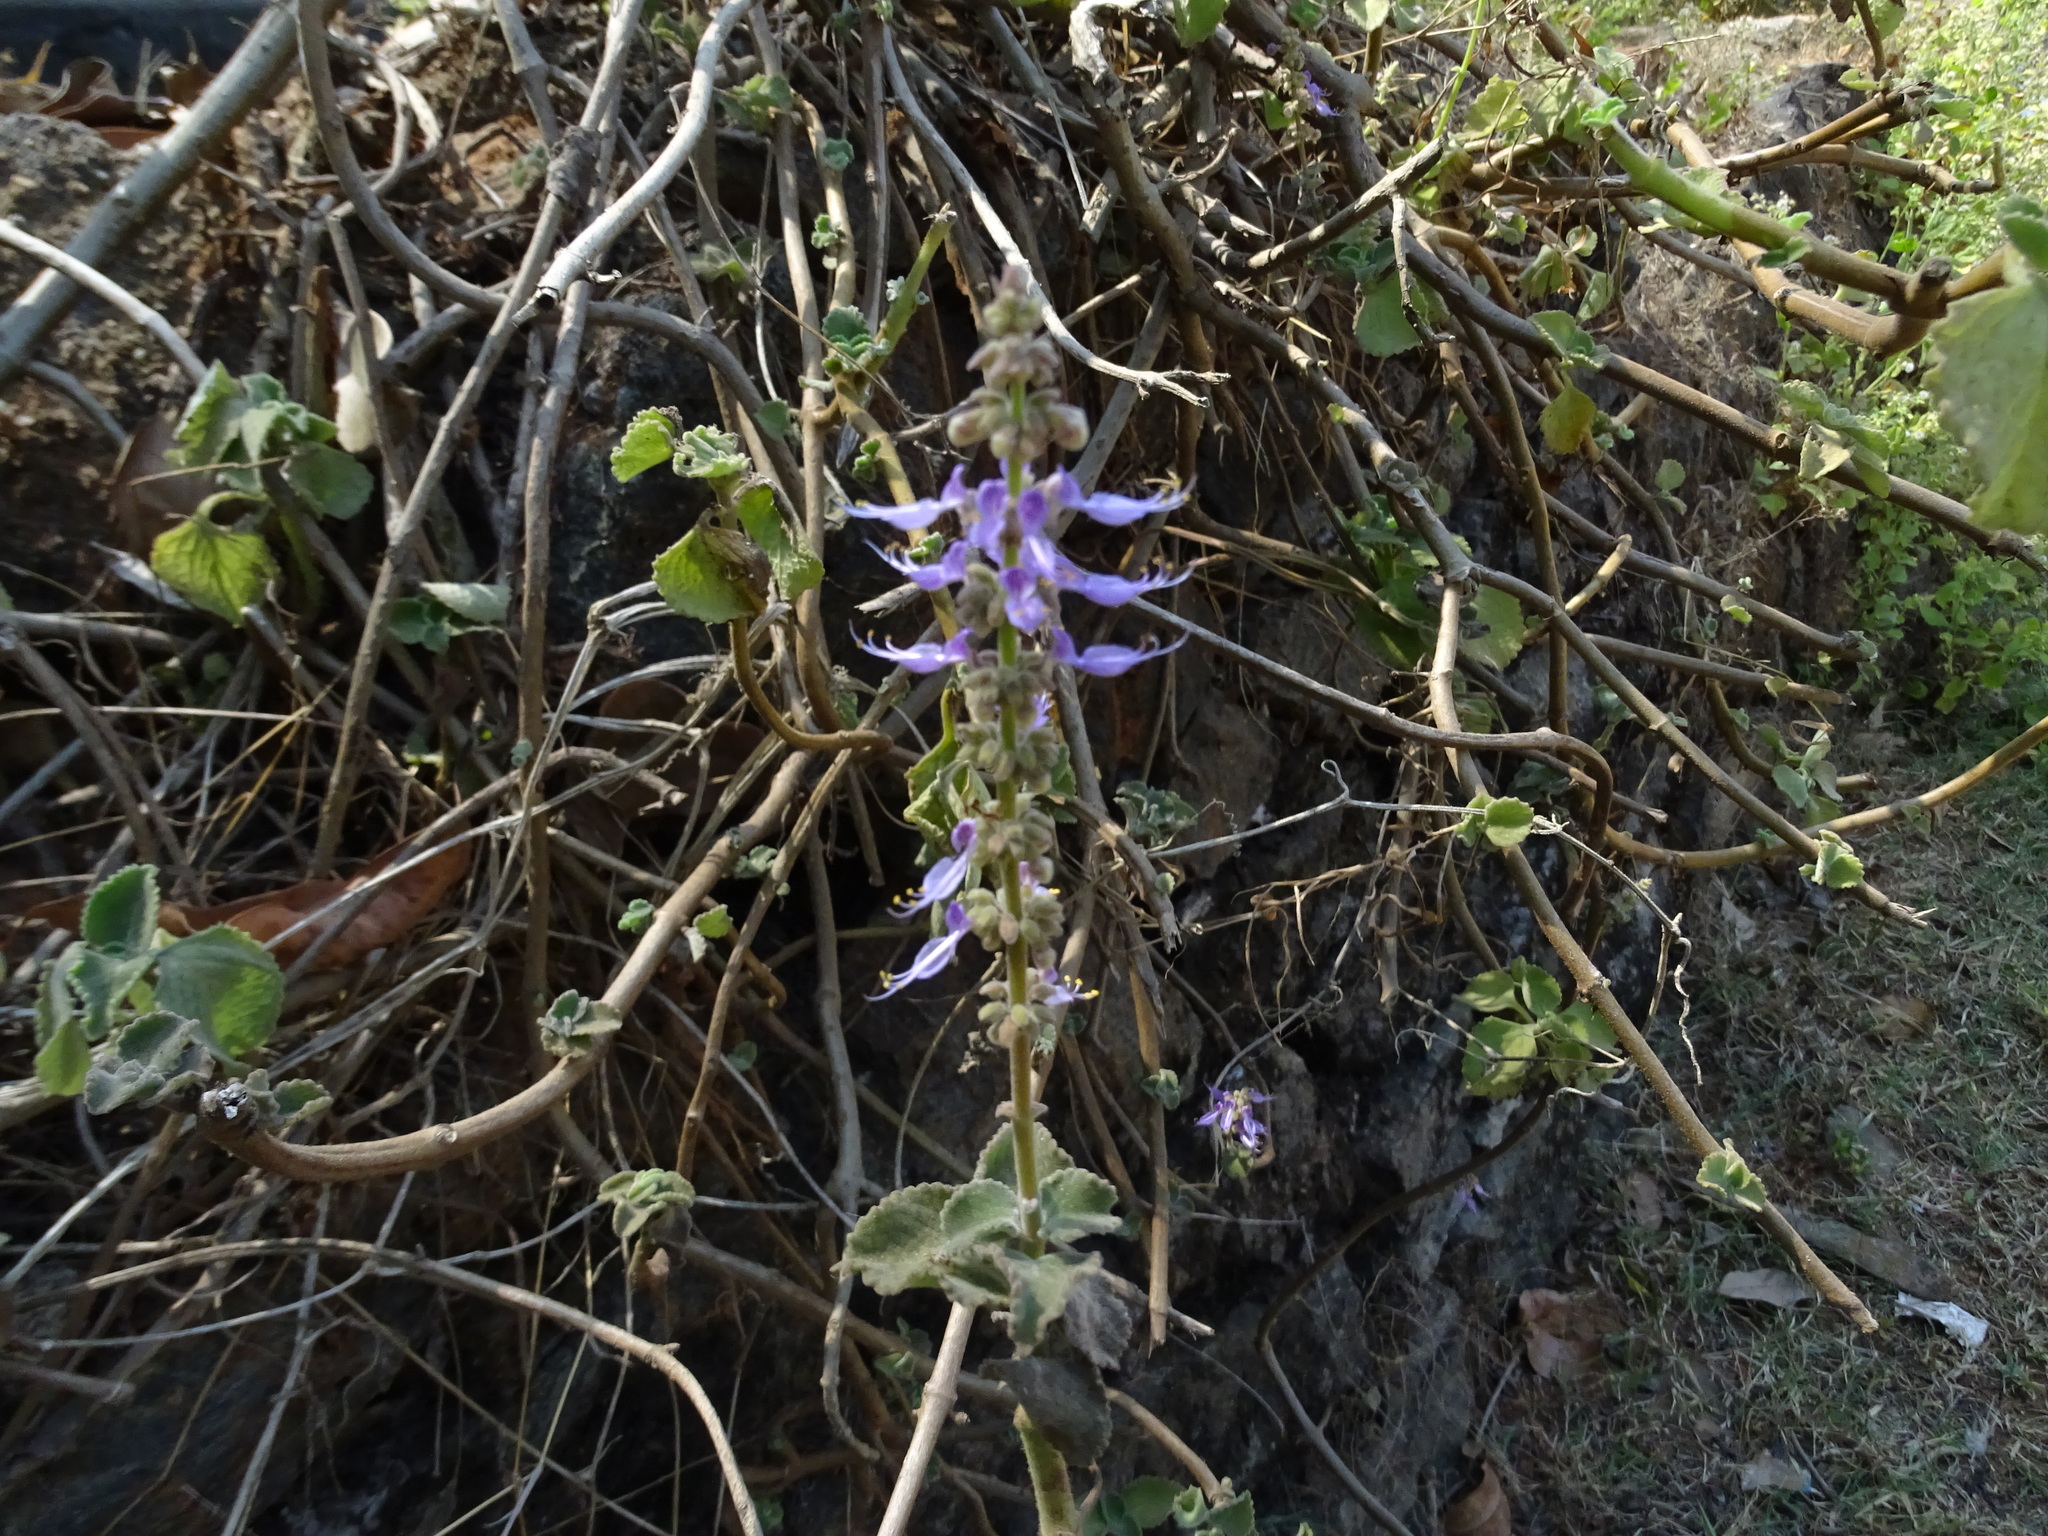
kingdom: Plantae
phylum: Tracheophyta
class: Magnoliopsida
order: Lamiales
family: Lamiaceae
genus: Coleus
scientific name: Coleus amboinicus
